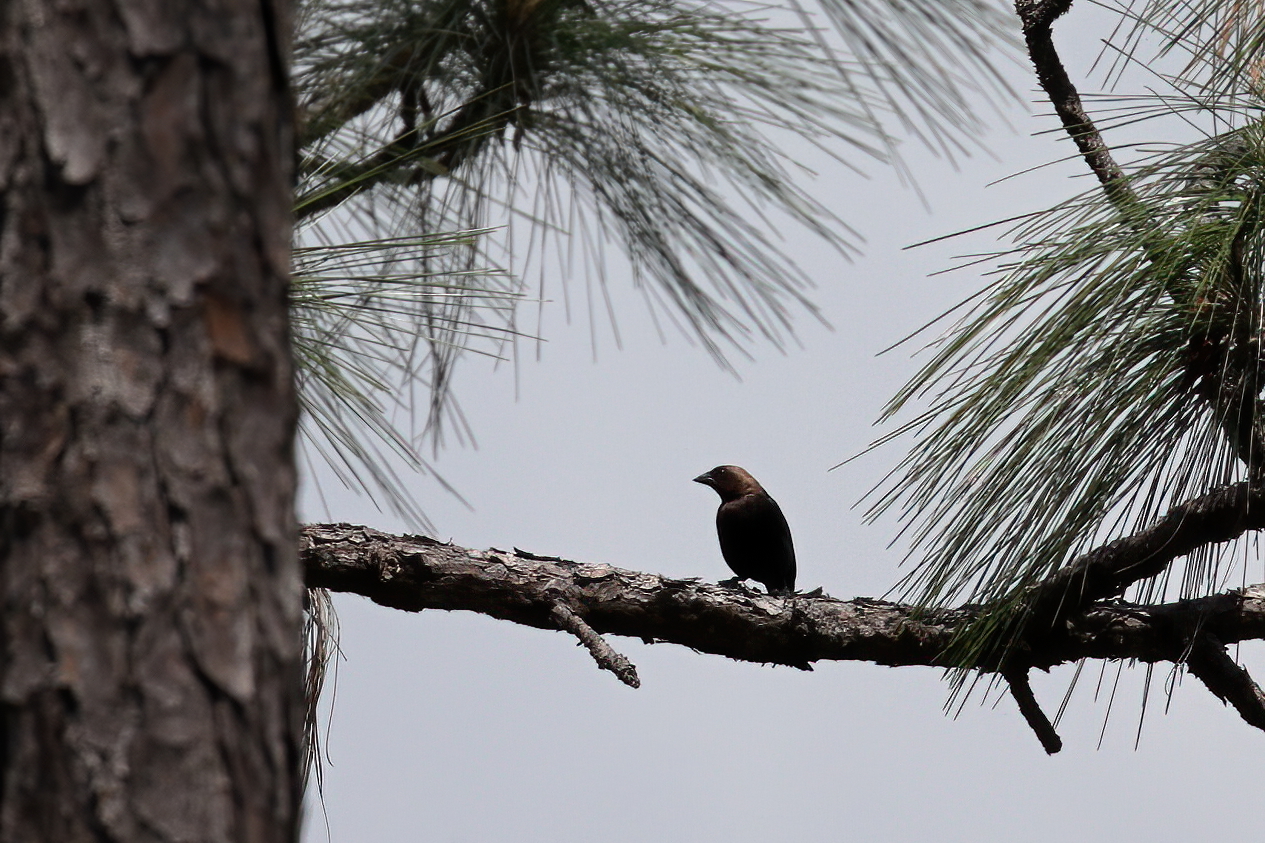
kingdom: Animalia
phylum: Chordata
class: Aves
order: Passeriformes
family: Icteridae
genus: Molothrus
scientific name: Molothrus ater
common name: Brown-headed cowbird
